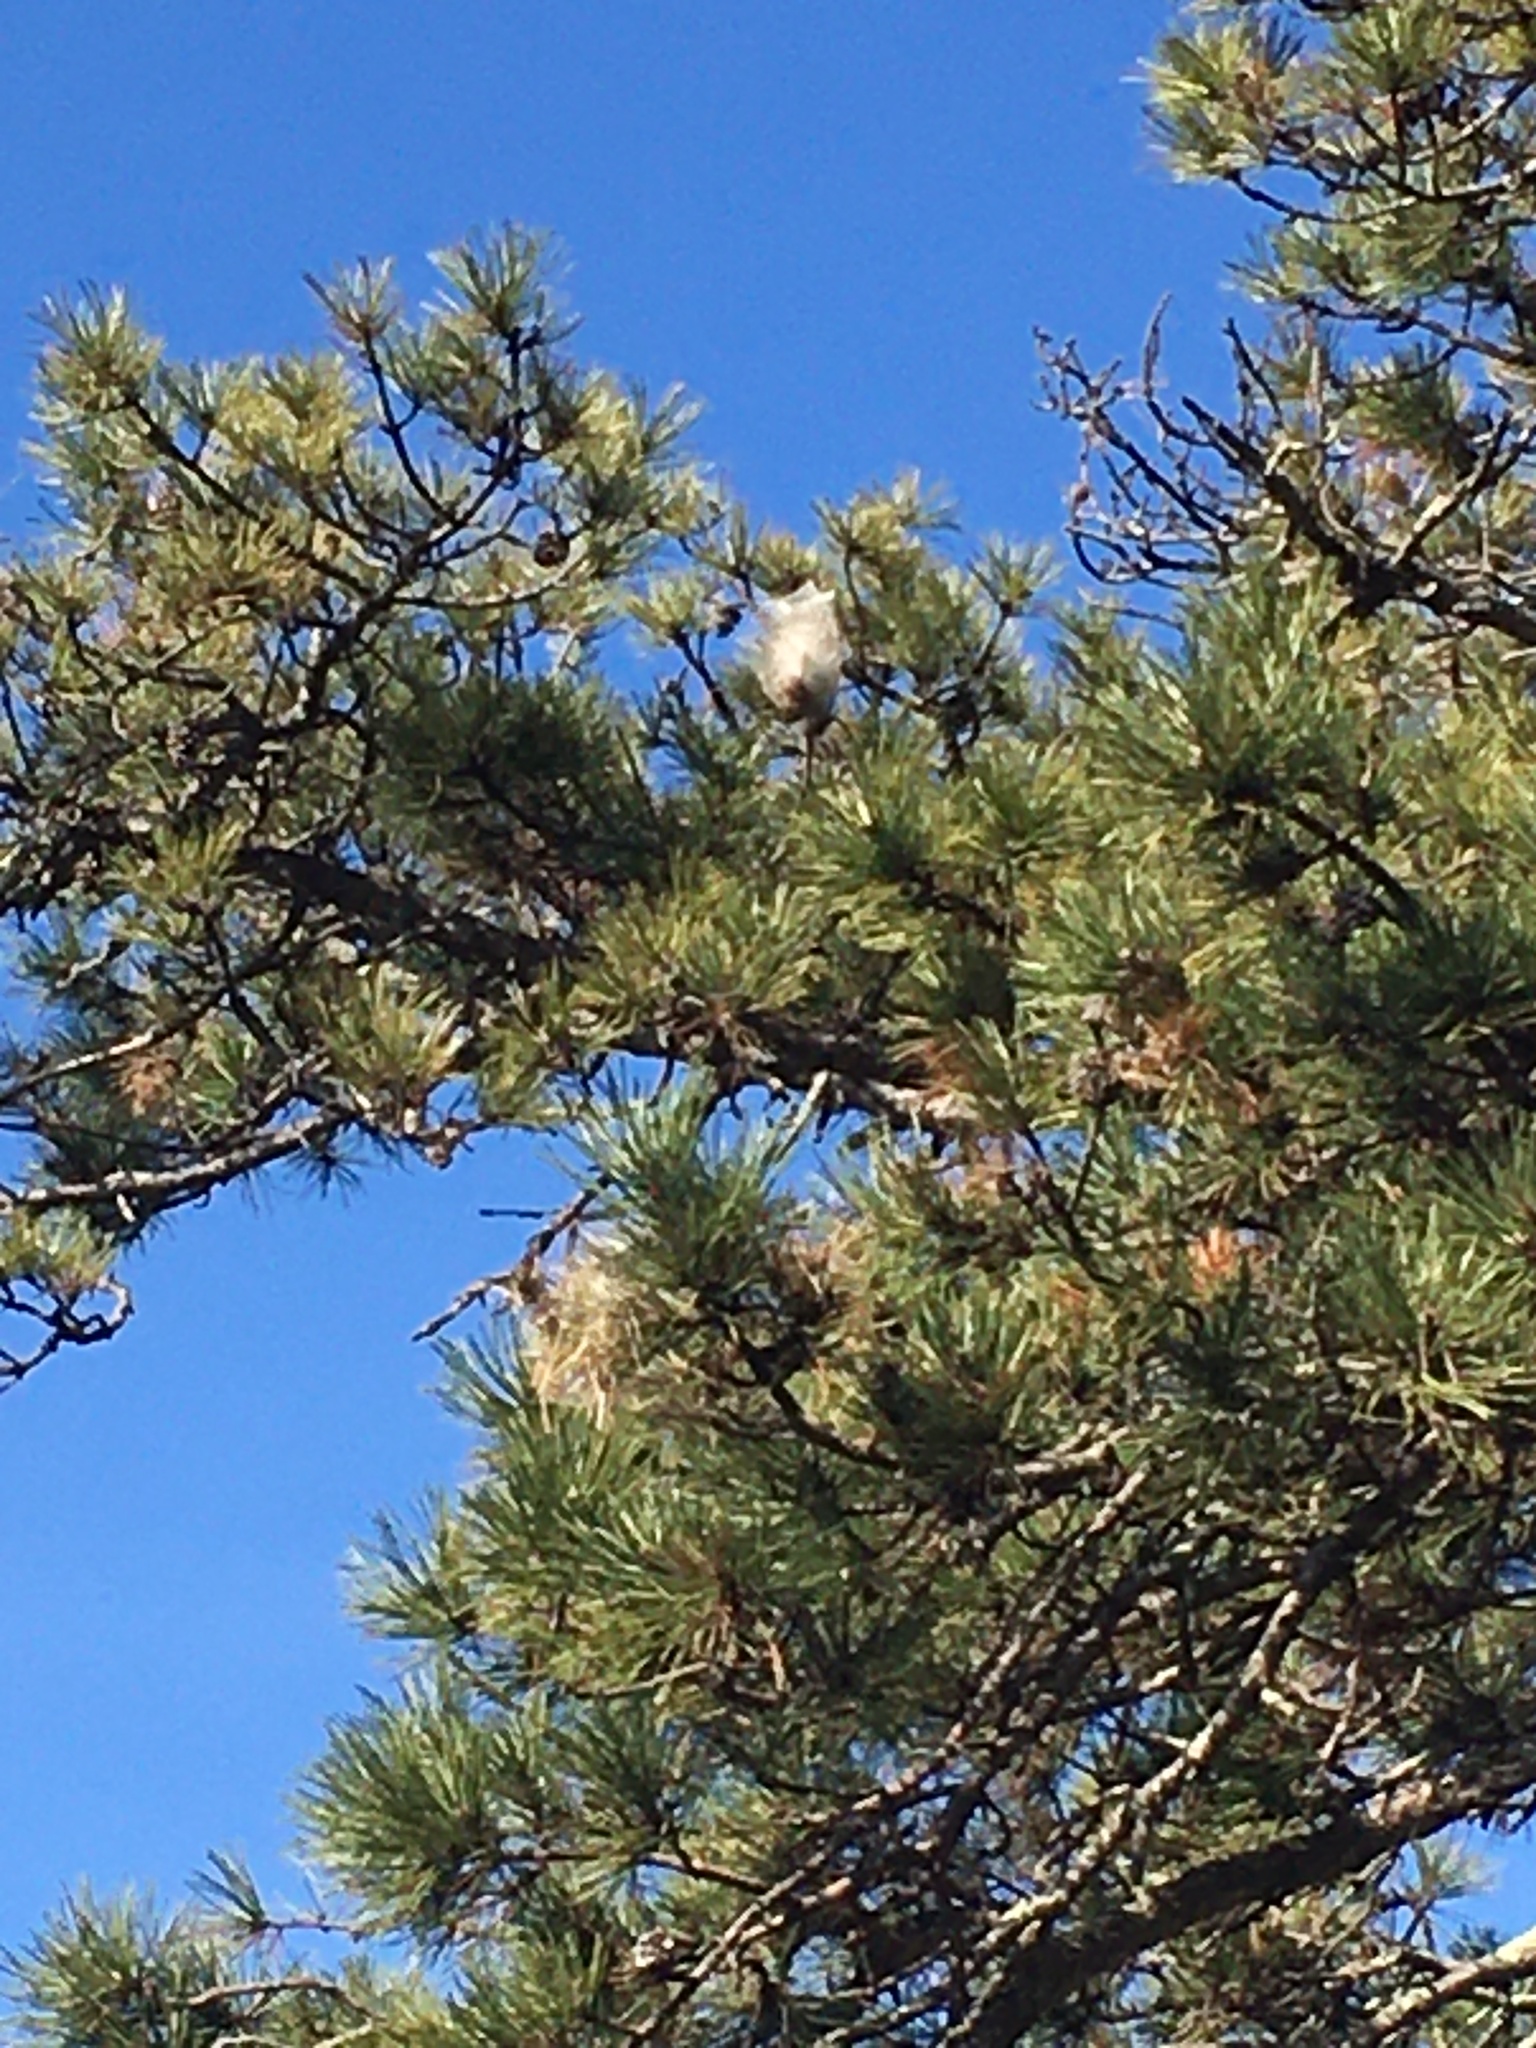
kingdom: Animalia
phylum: Arthropoda
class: Insecta
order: Lepidoptera
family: Notodontidae
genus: Thaumetopoea
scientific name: Thaumetopoea pityocampa
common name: Pine processionary
